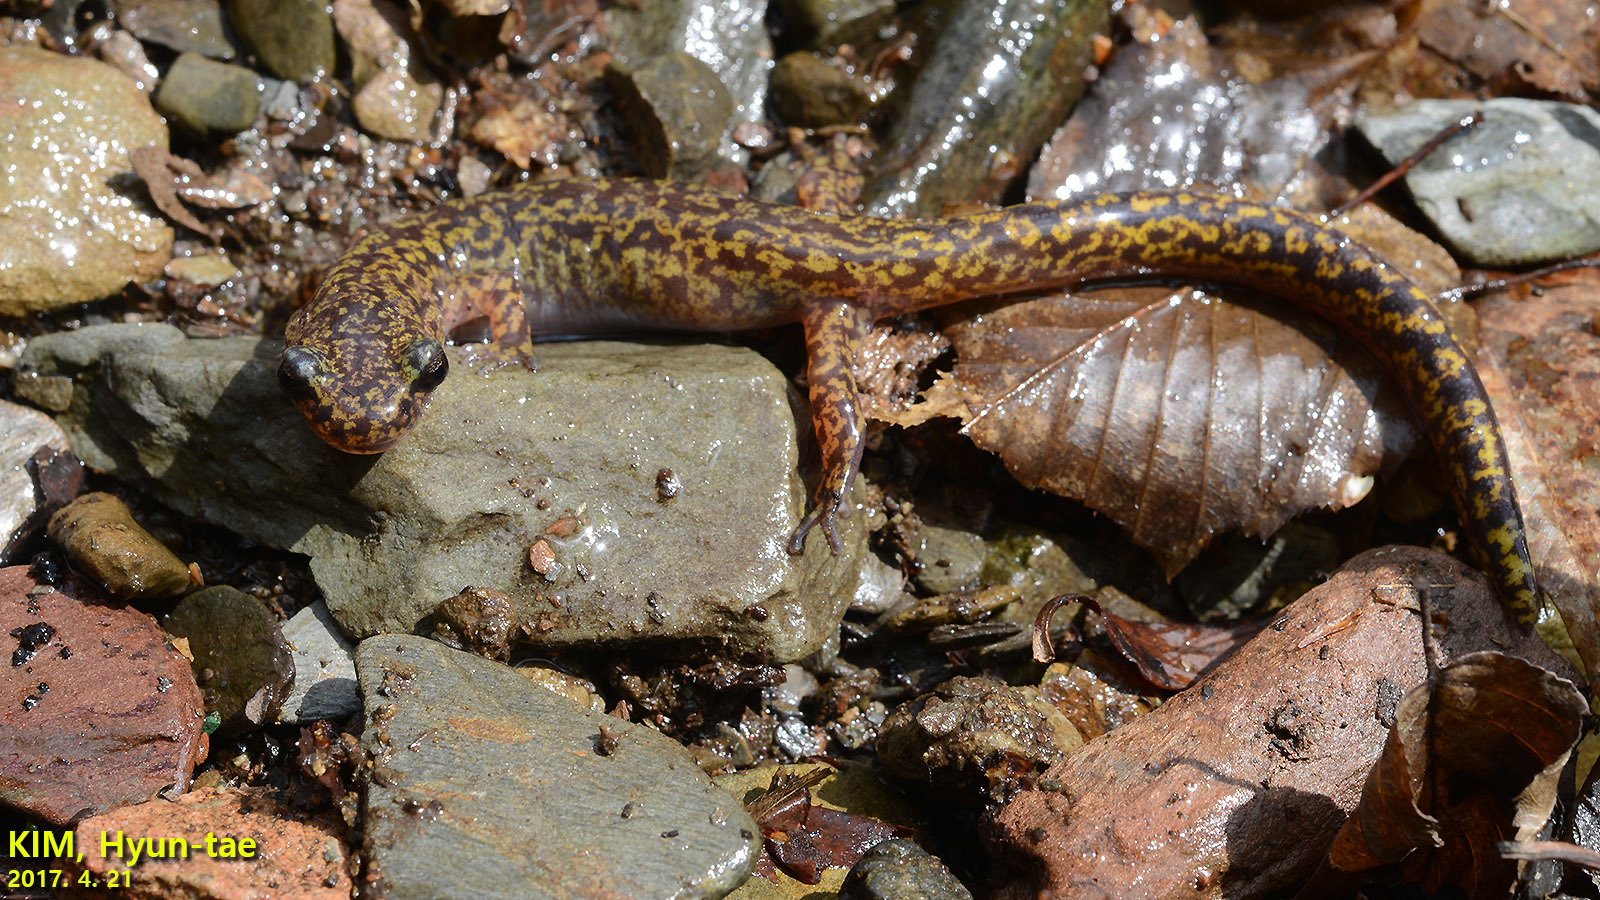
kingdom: Animalia
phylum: Chordata
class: Amphibia
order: Caudata
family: Hynobiidae
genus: Onychodactylus
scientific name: Onychodactylus koreanus
